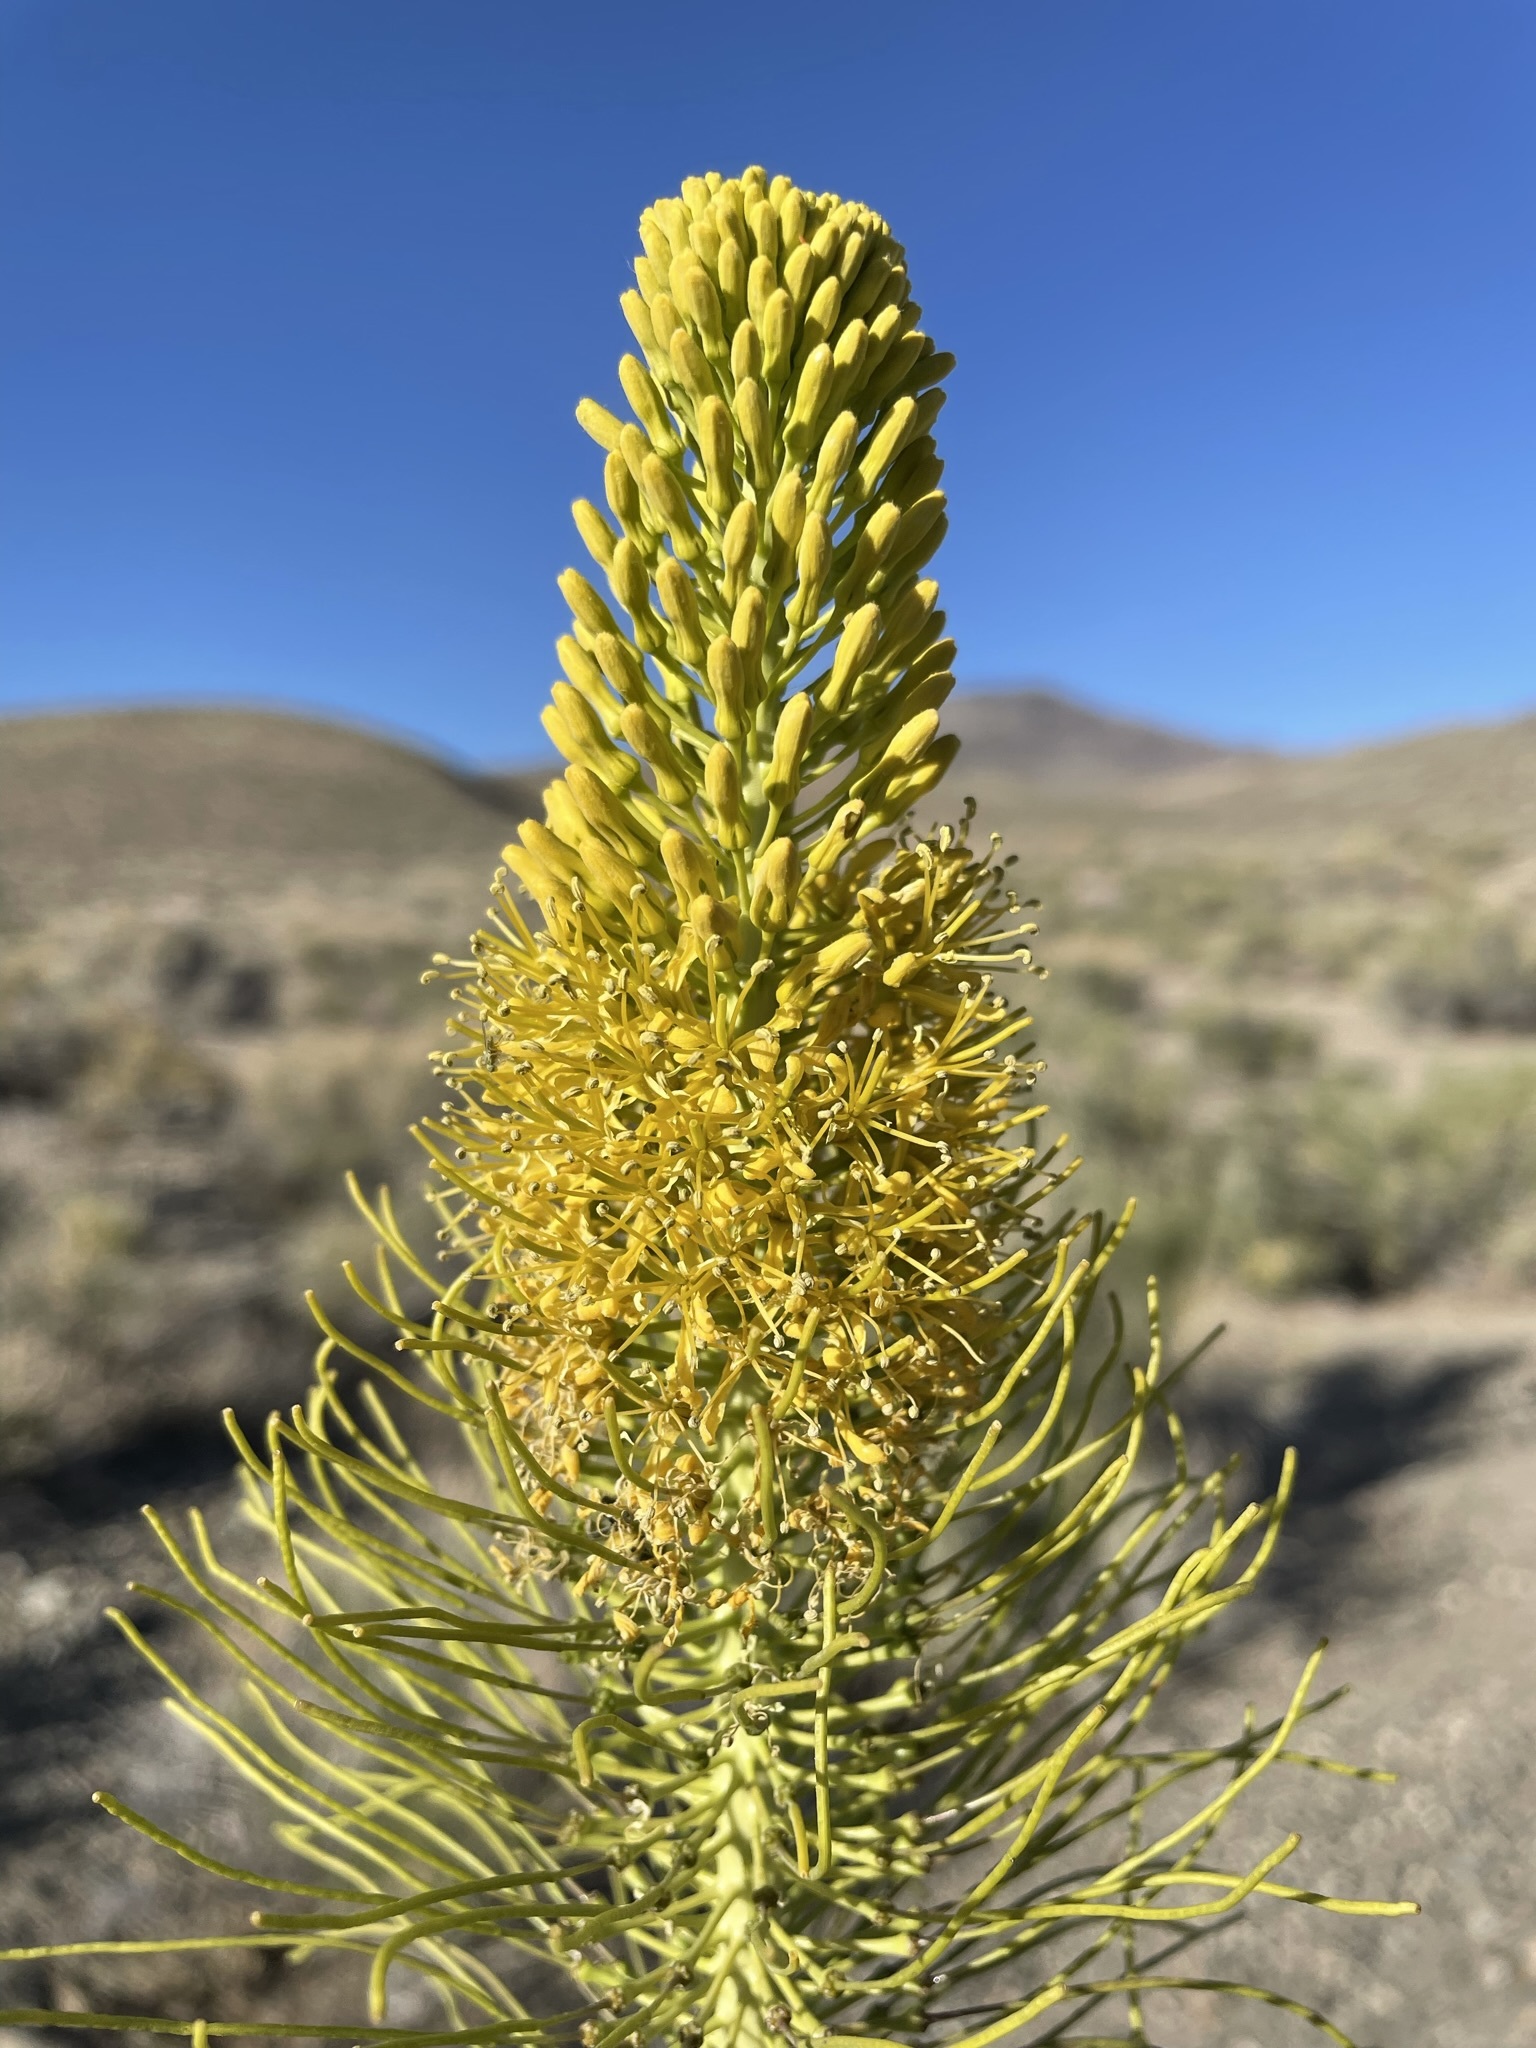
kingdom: Plantae
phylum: Tracheophyta
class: Magnoliopsida
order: Brassicales
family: Brassicaceae
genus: Stanleya
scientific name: Stanleya elata
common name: Panamint prince's plume
